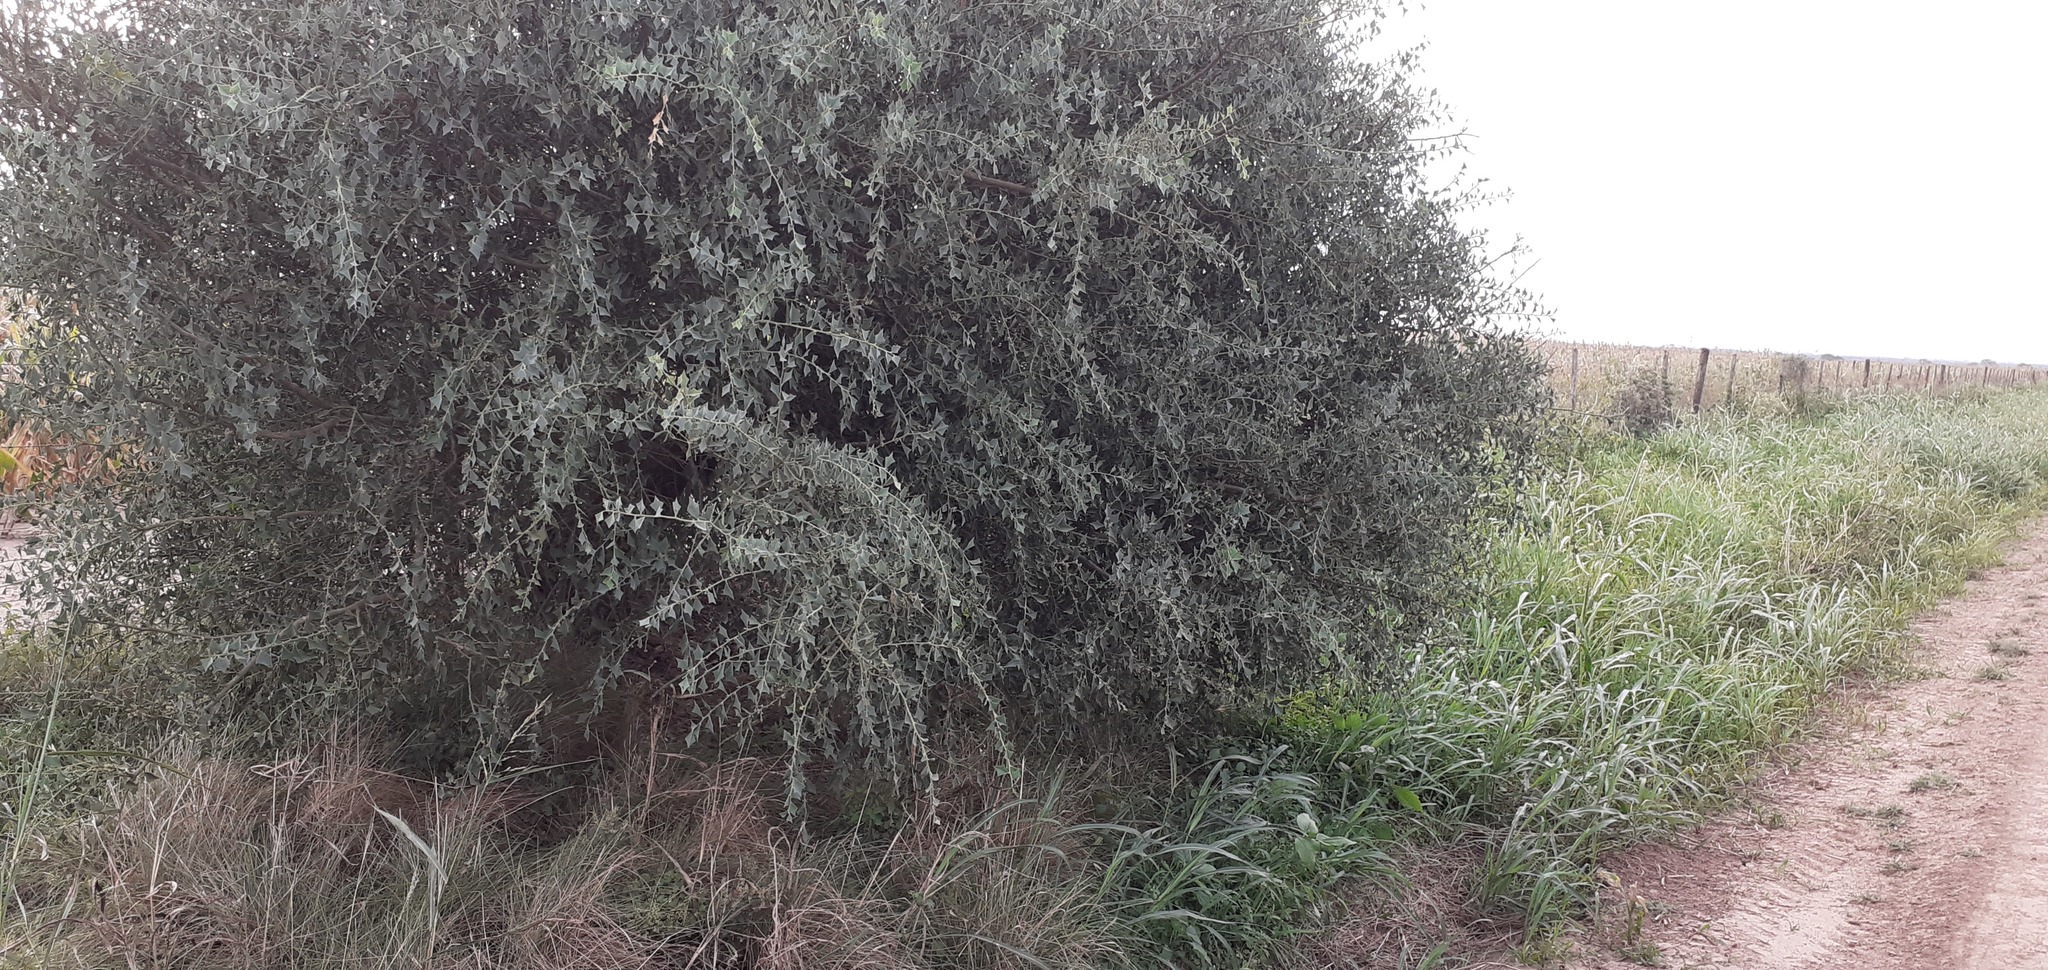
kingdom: Plantae
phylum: Tracheophyta
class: Magnoliopsida
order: Santalales
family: Cervantesiaceae
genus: Jodina
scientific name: Jodina rhombifolia
